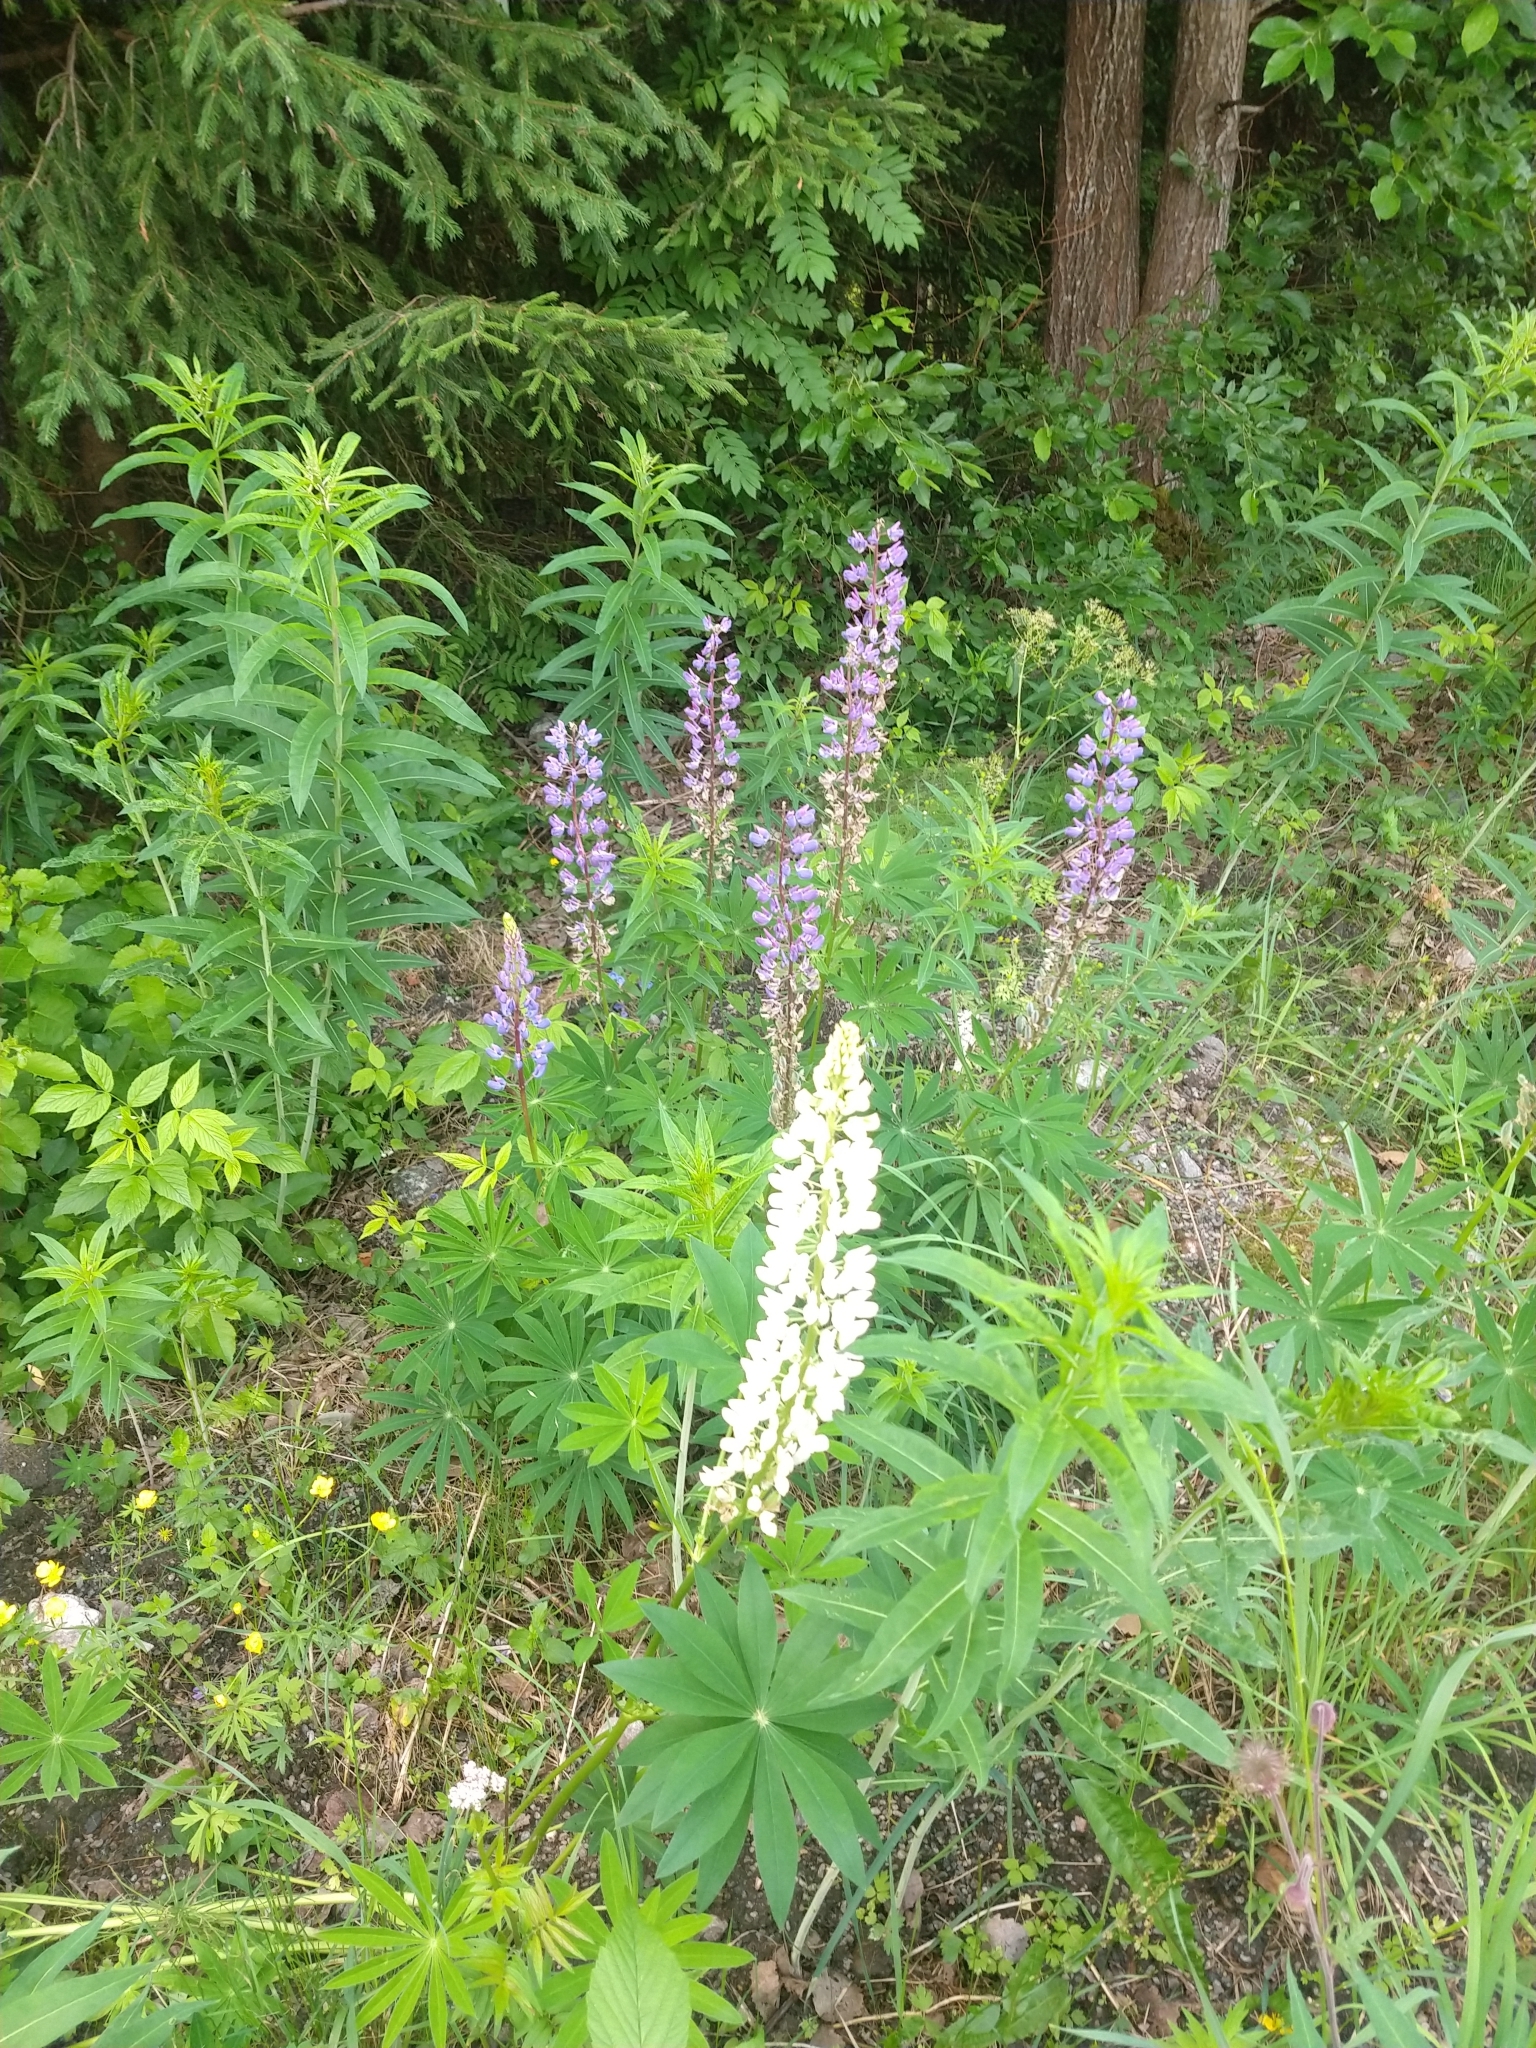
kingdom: Plantae
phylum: Tracheophyta
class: Magnoliopsida
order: Fabales
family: Fabaceae
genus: Lupinus
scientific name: Lupinus polyphyllus
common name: Garden lupin
